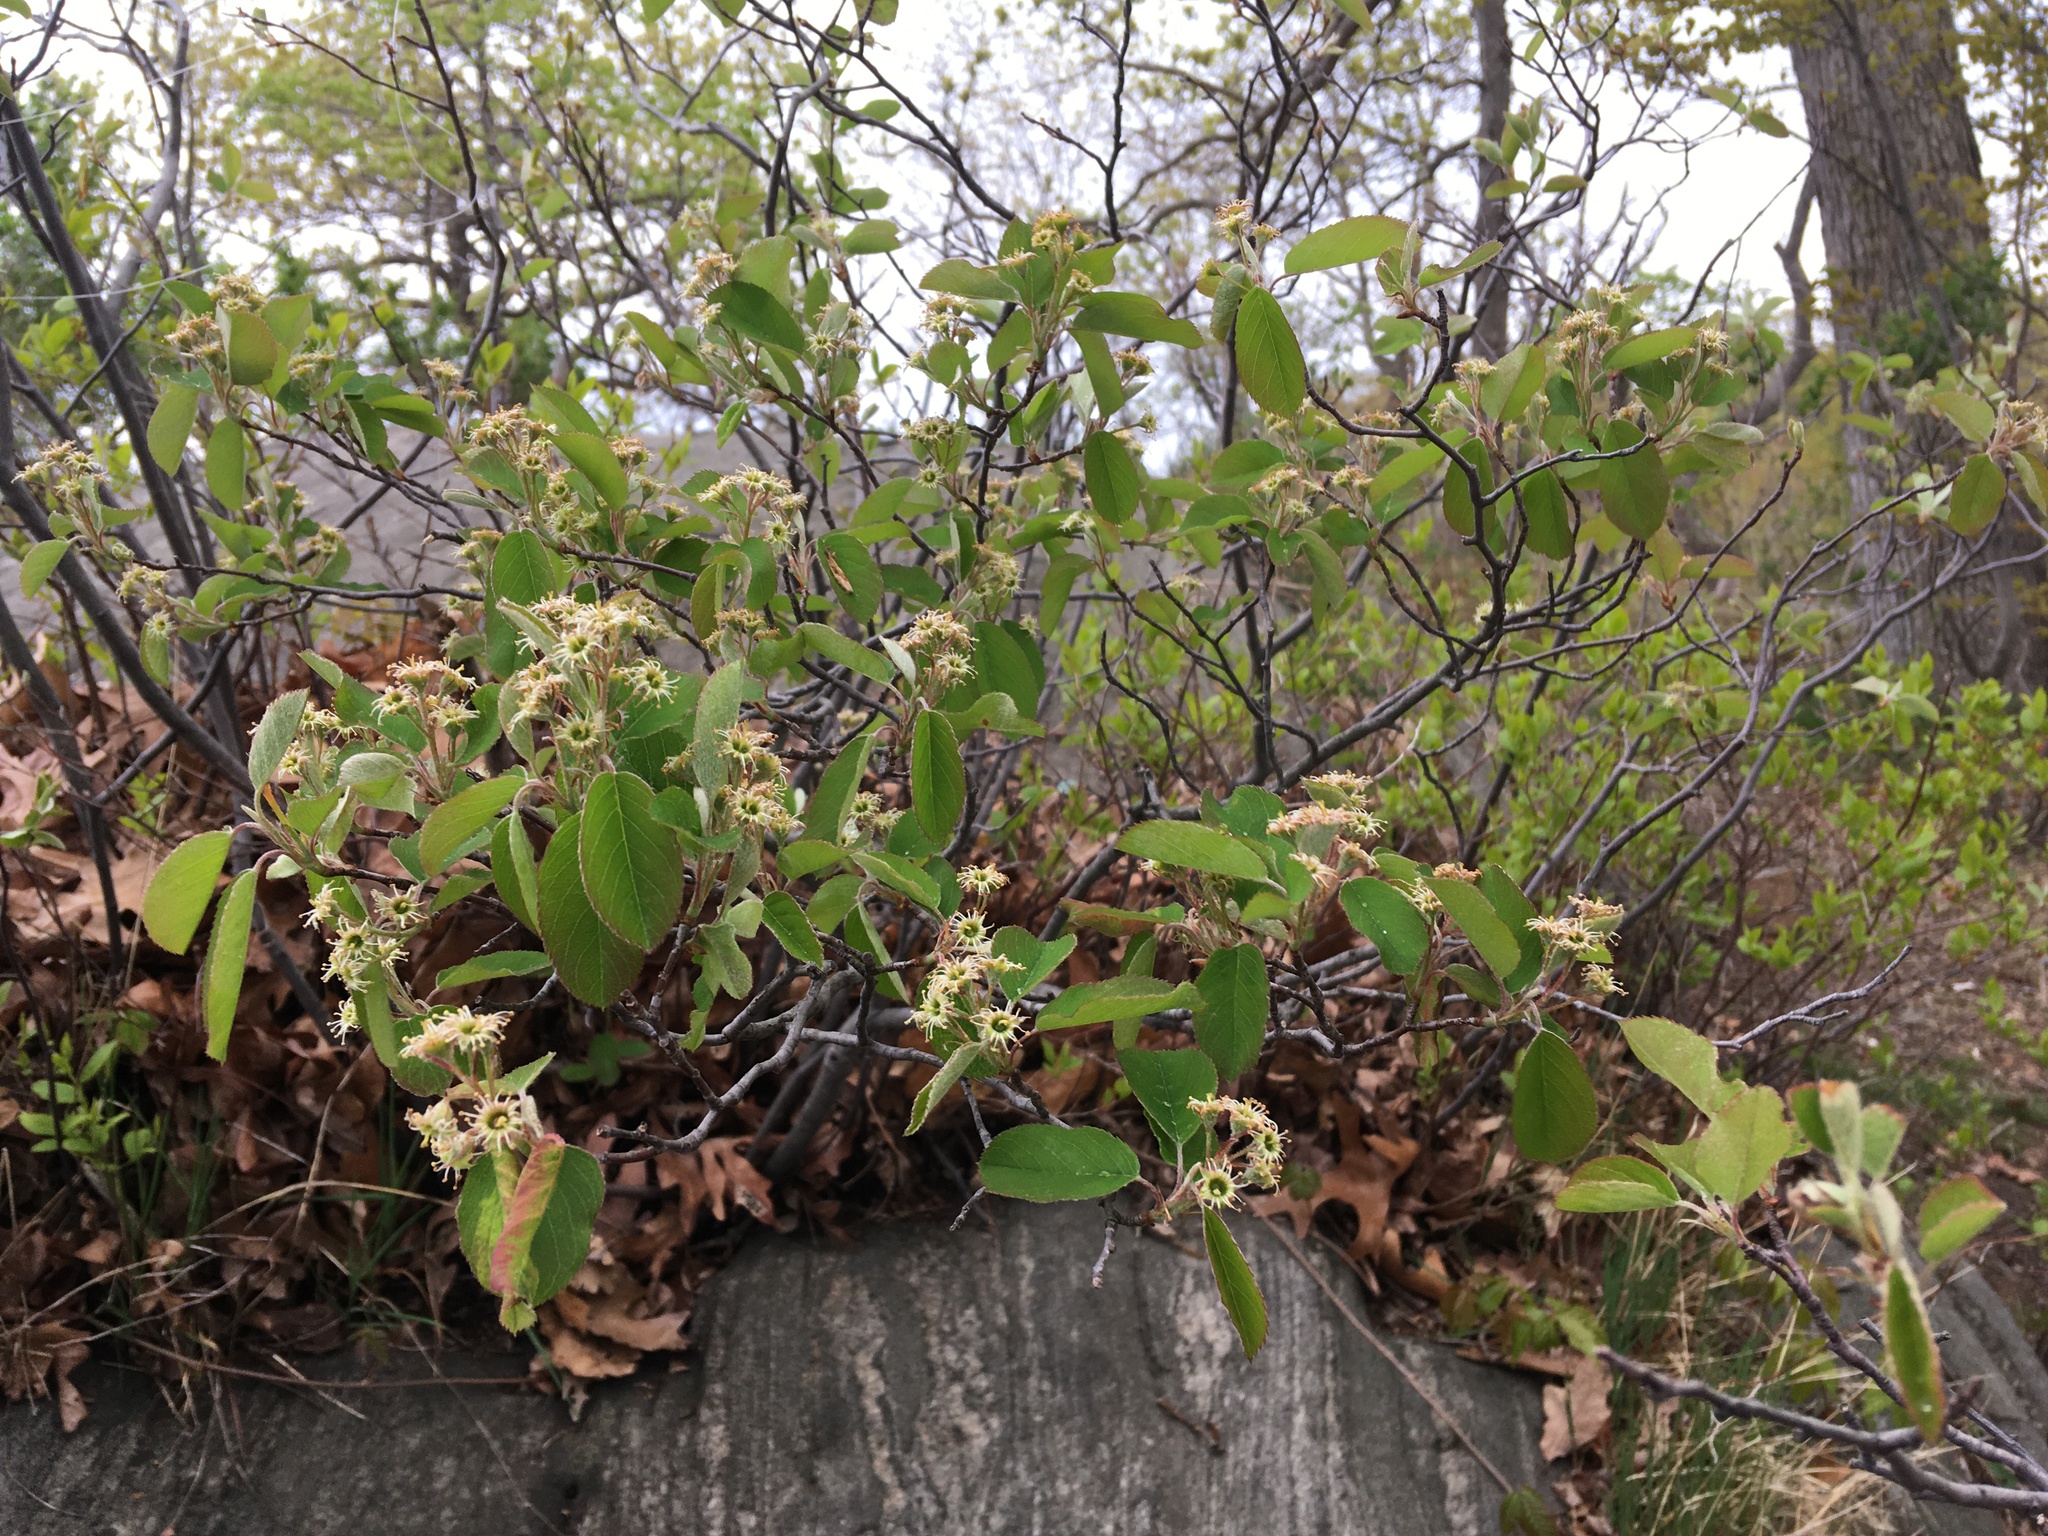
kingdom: Plantae
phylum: Tracheophyta
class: Magnoliopsida
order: Rosales
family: Rosaceae
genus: Amelanchier
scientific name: Amelanchier nantucketensis
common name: Nantucket shadbush
